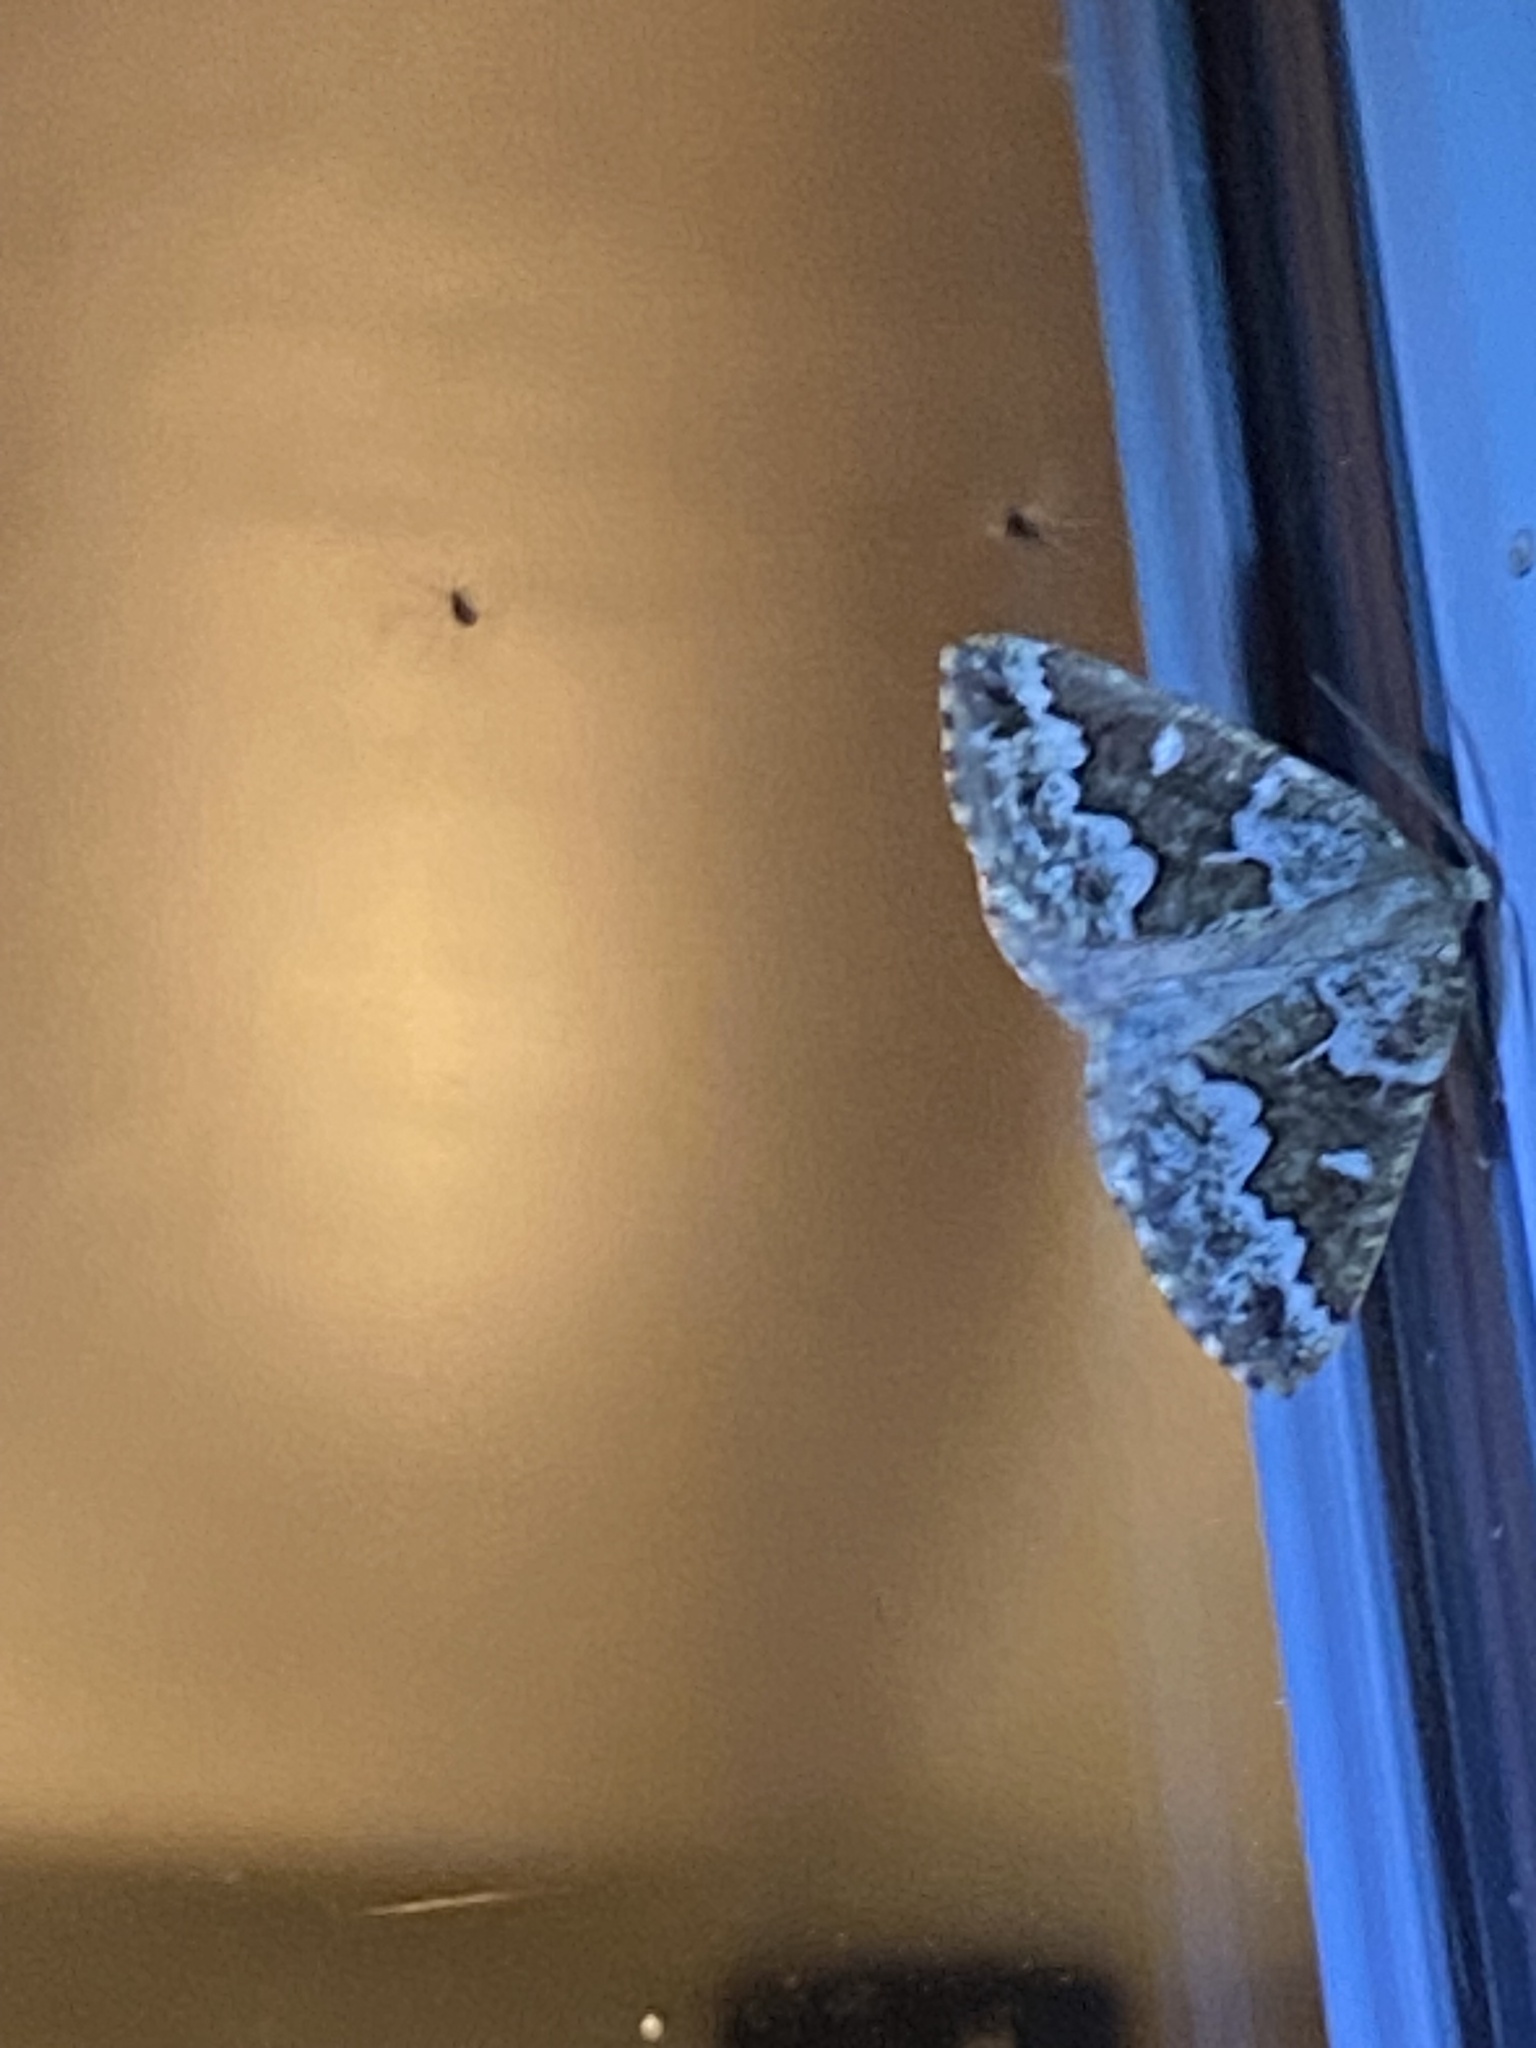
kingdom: Animalia
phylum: Arthropoda
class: Insecta
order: Lepidoptera
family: Geometridae
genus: Caripeta
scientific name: Caripeta divisata
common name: Gray spruce looper
